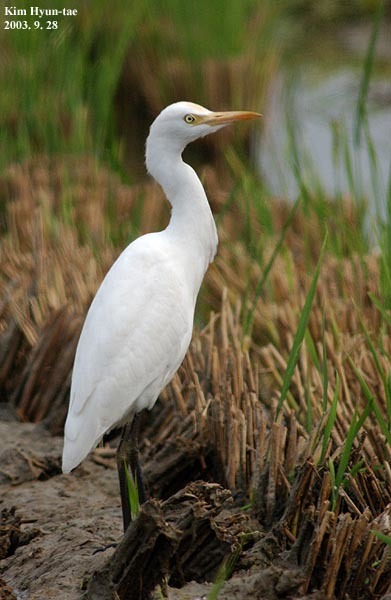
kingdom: Animalia
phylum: Chordata
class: Aves
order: Pelecaniformes
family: Ardeidae
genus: Bubulcus
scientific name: Bubulcus coromandus
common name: Eastern cattle egret
